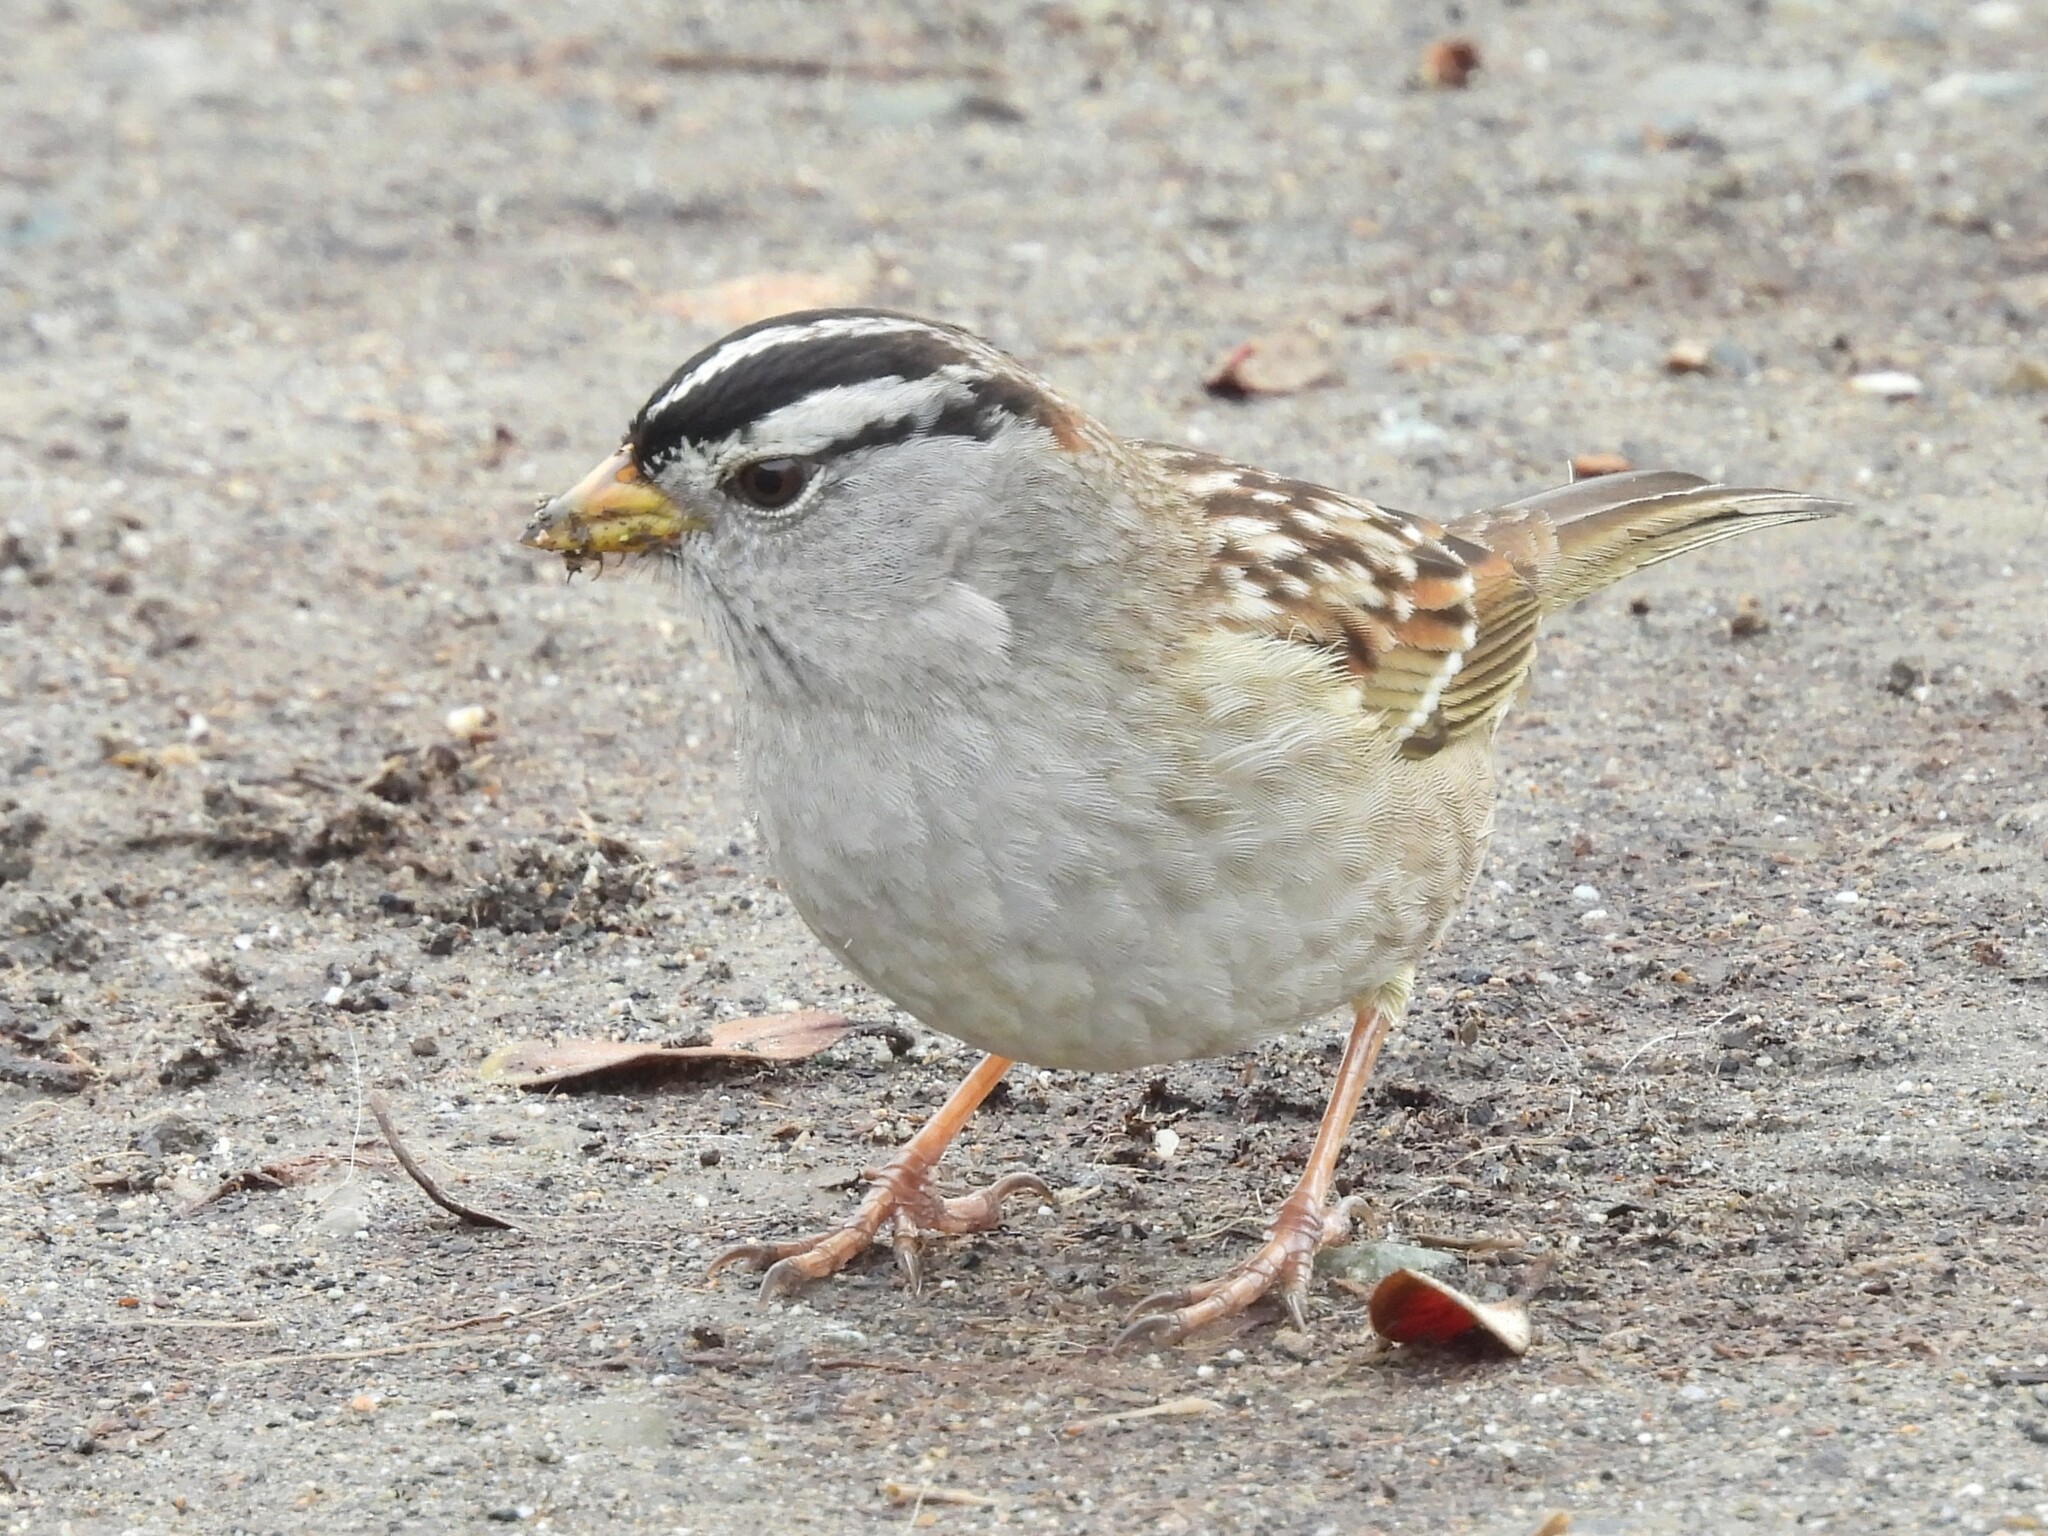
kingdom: Animalia
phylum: Chordata
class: Aves
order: Passeriformes
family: Passerellidae
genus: Zonotrichia
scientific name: Zonotrichia leucophrys
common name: White-crowned sparrow
